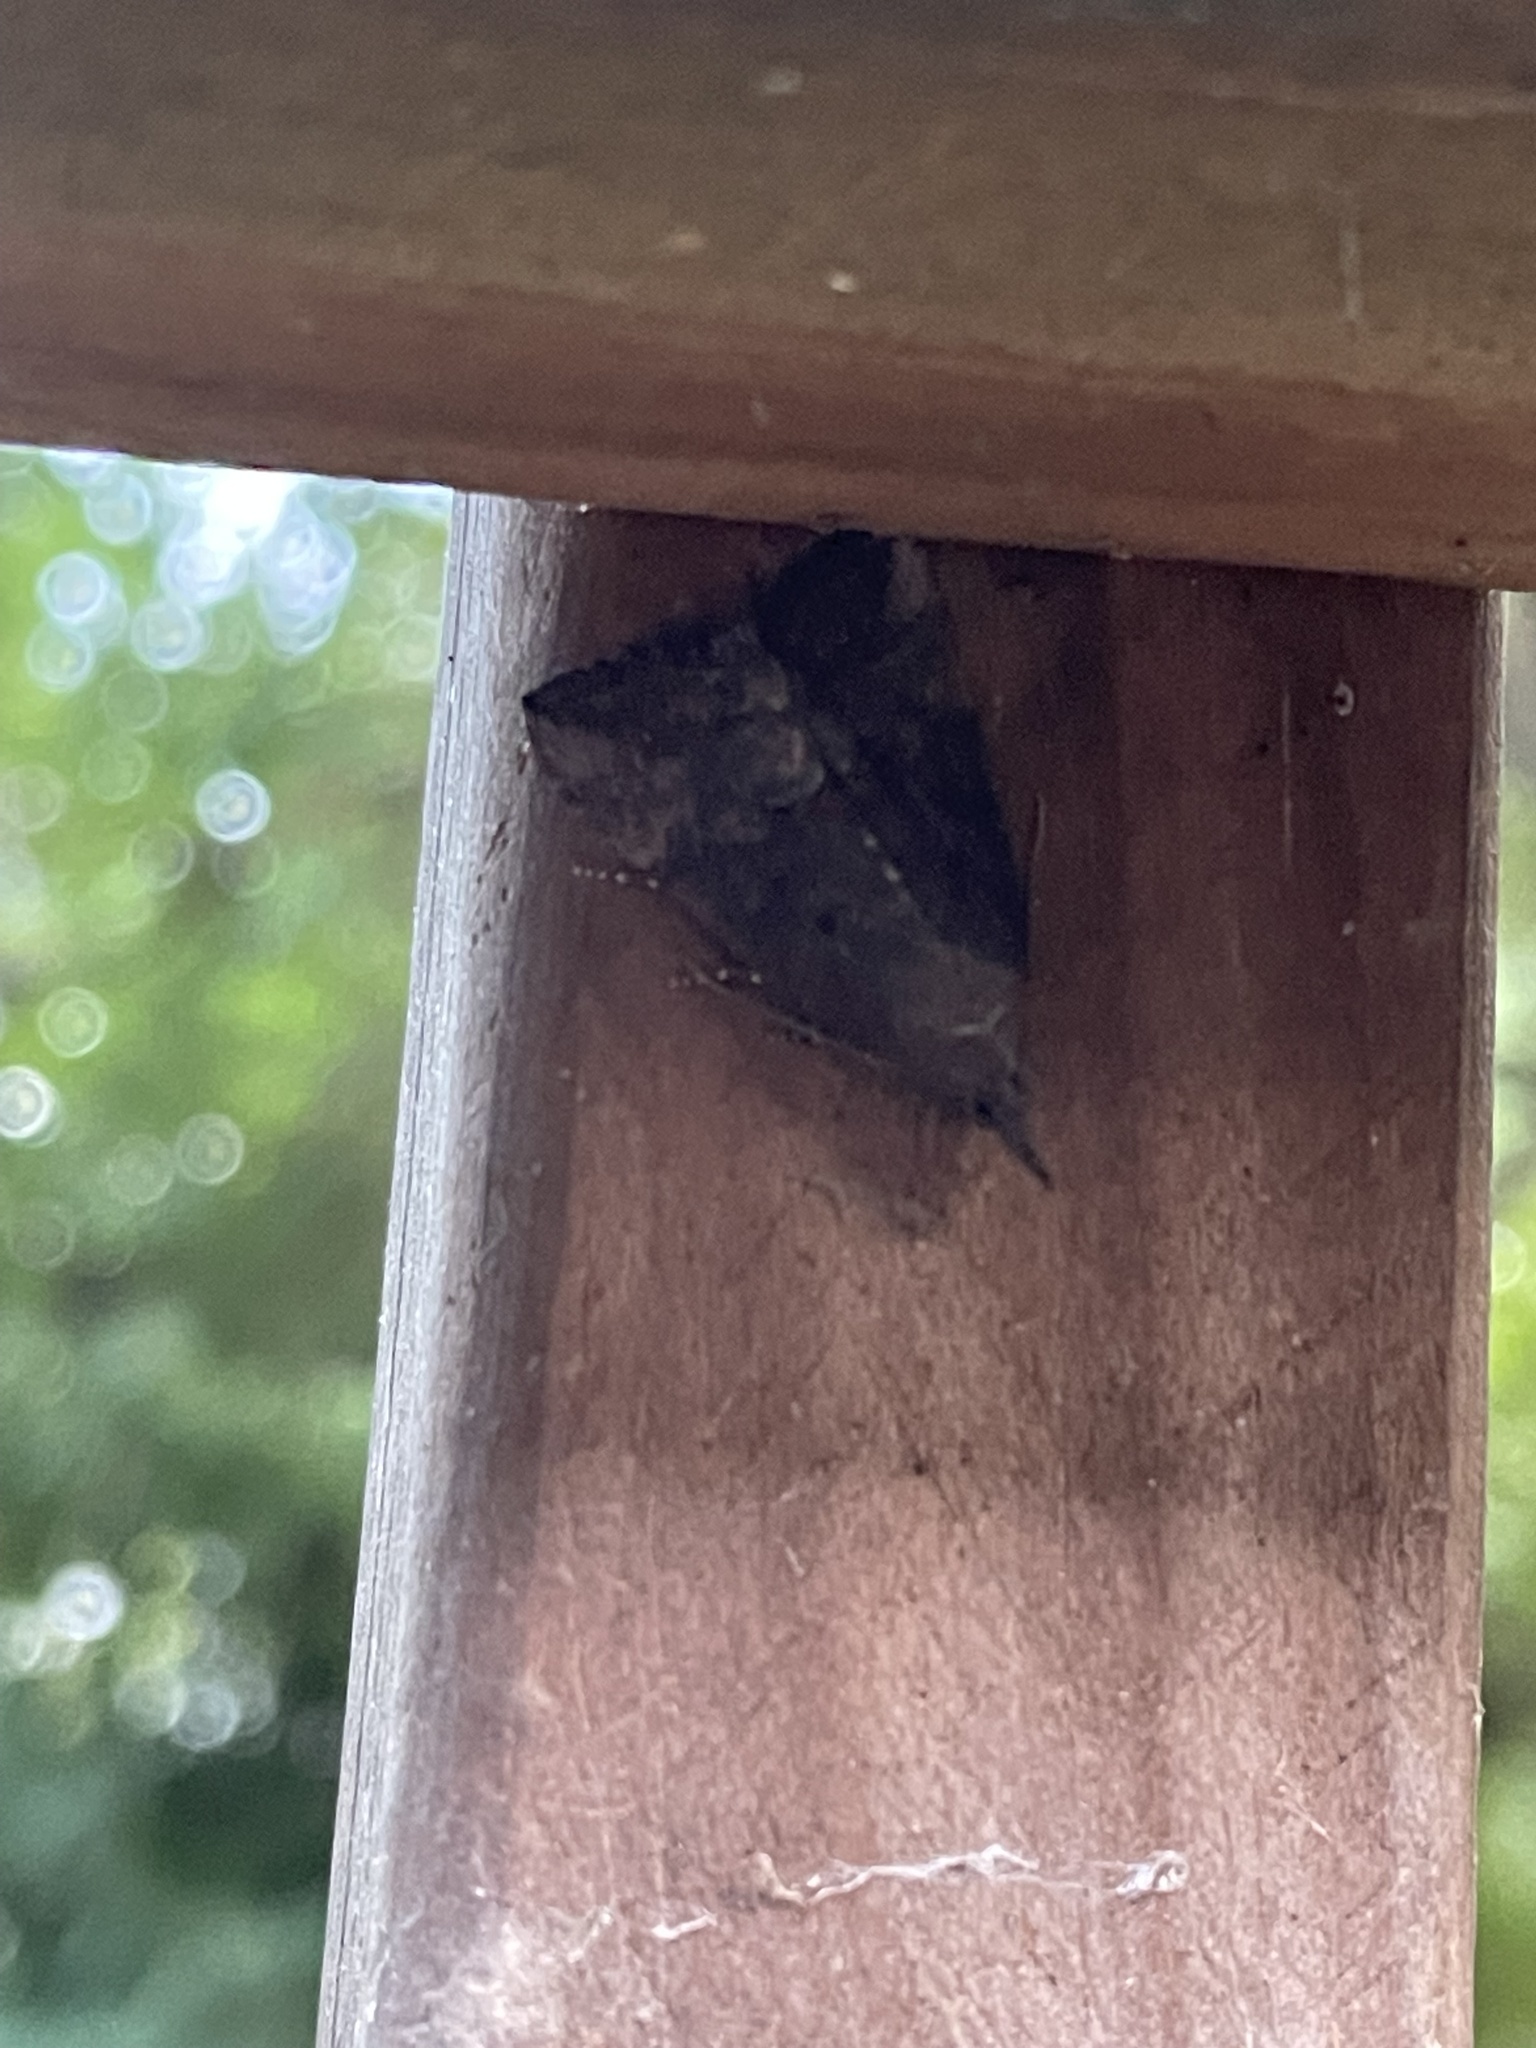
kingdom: Animalia
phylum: Arthropoda
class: Insecta
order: Lepidoptera
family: Erebidae
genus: Hypena
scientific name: Hypena scabra
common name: Green cloverworm
